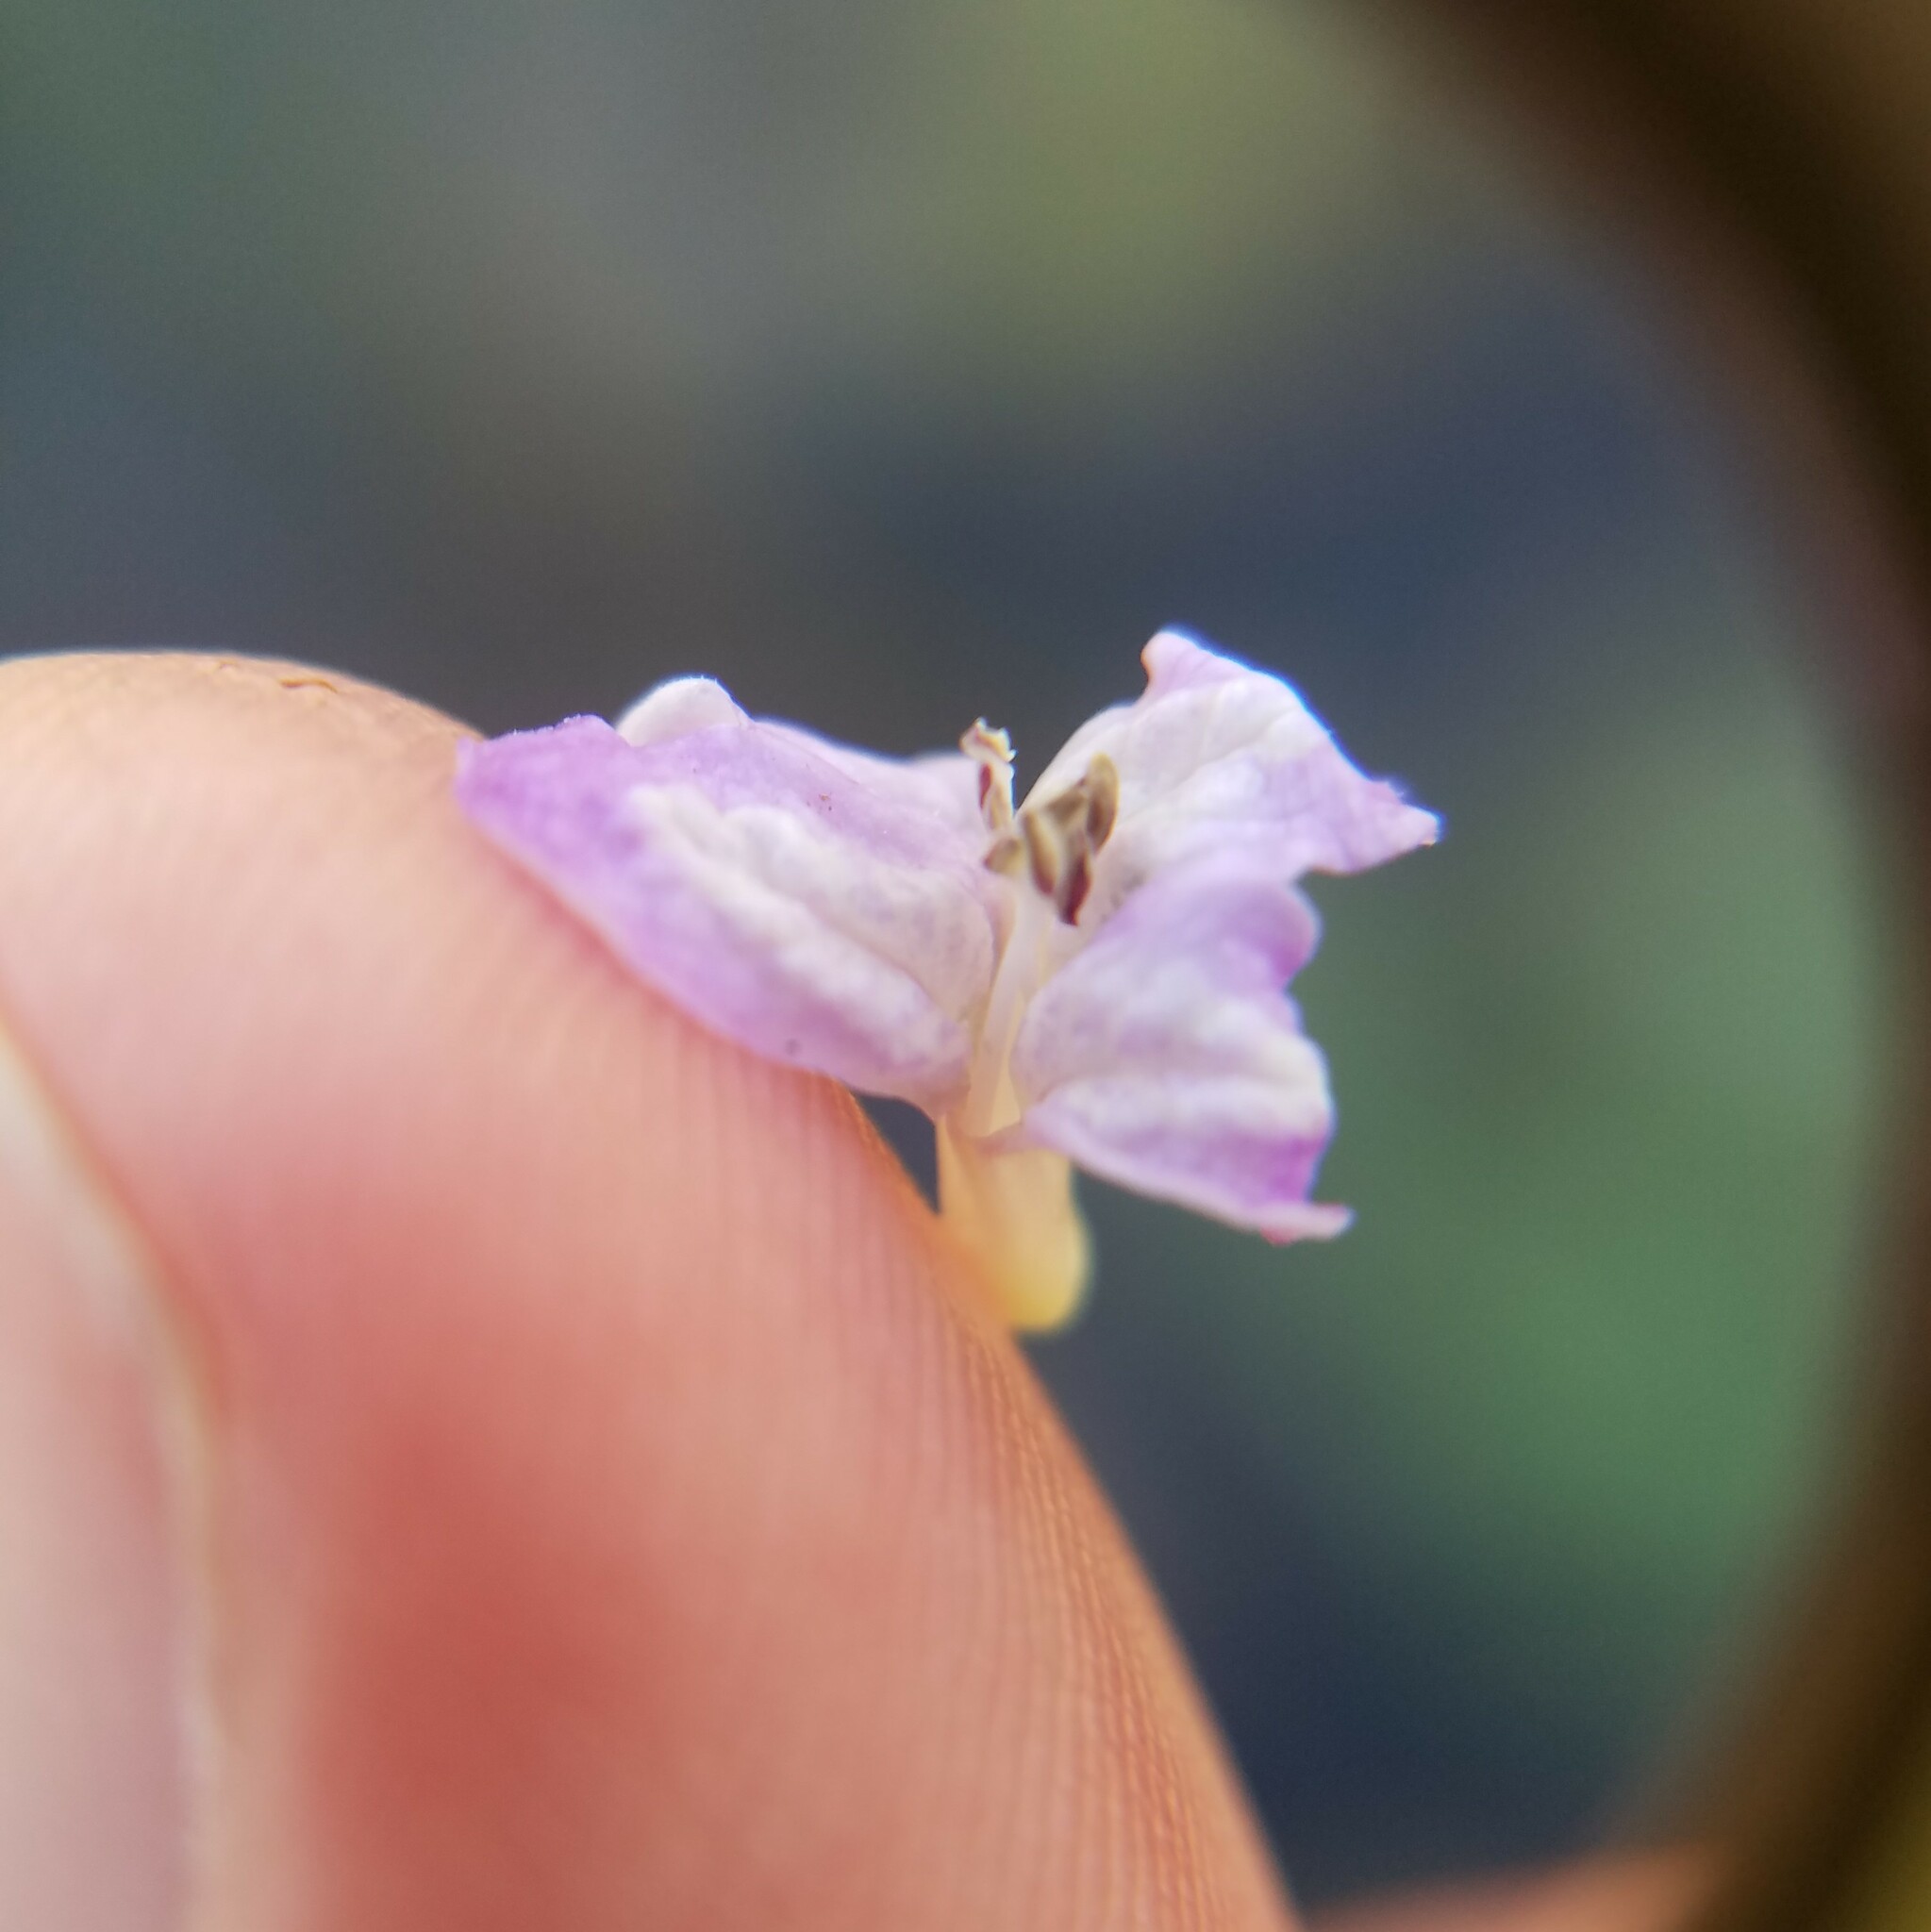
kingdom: Plantae
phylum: Tracheophyta
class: Magnoliopsida
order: Lamiales
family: Acanthaceae
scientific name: Acanthaceae
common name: Acanthaceae
